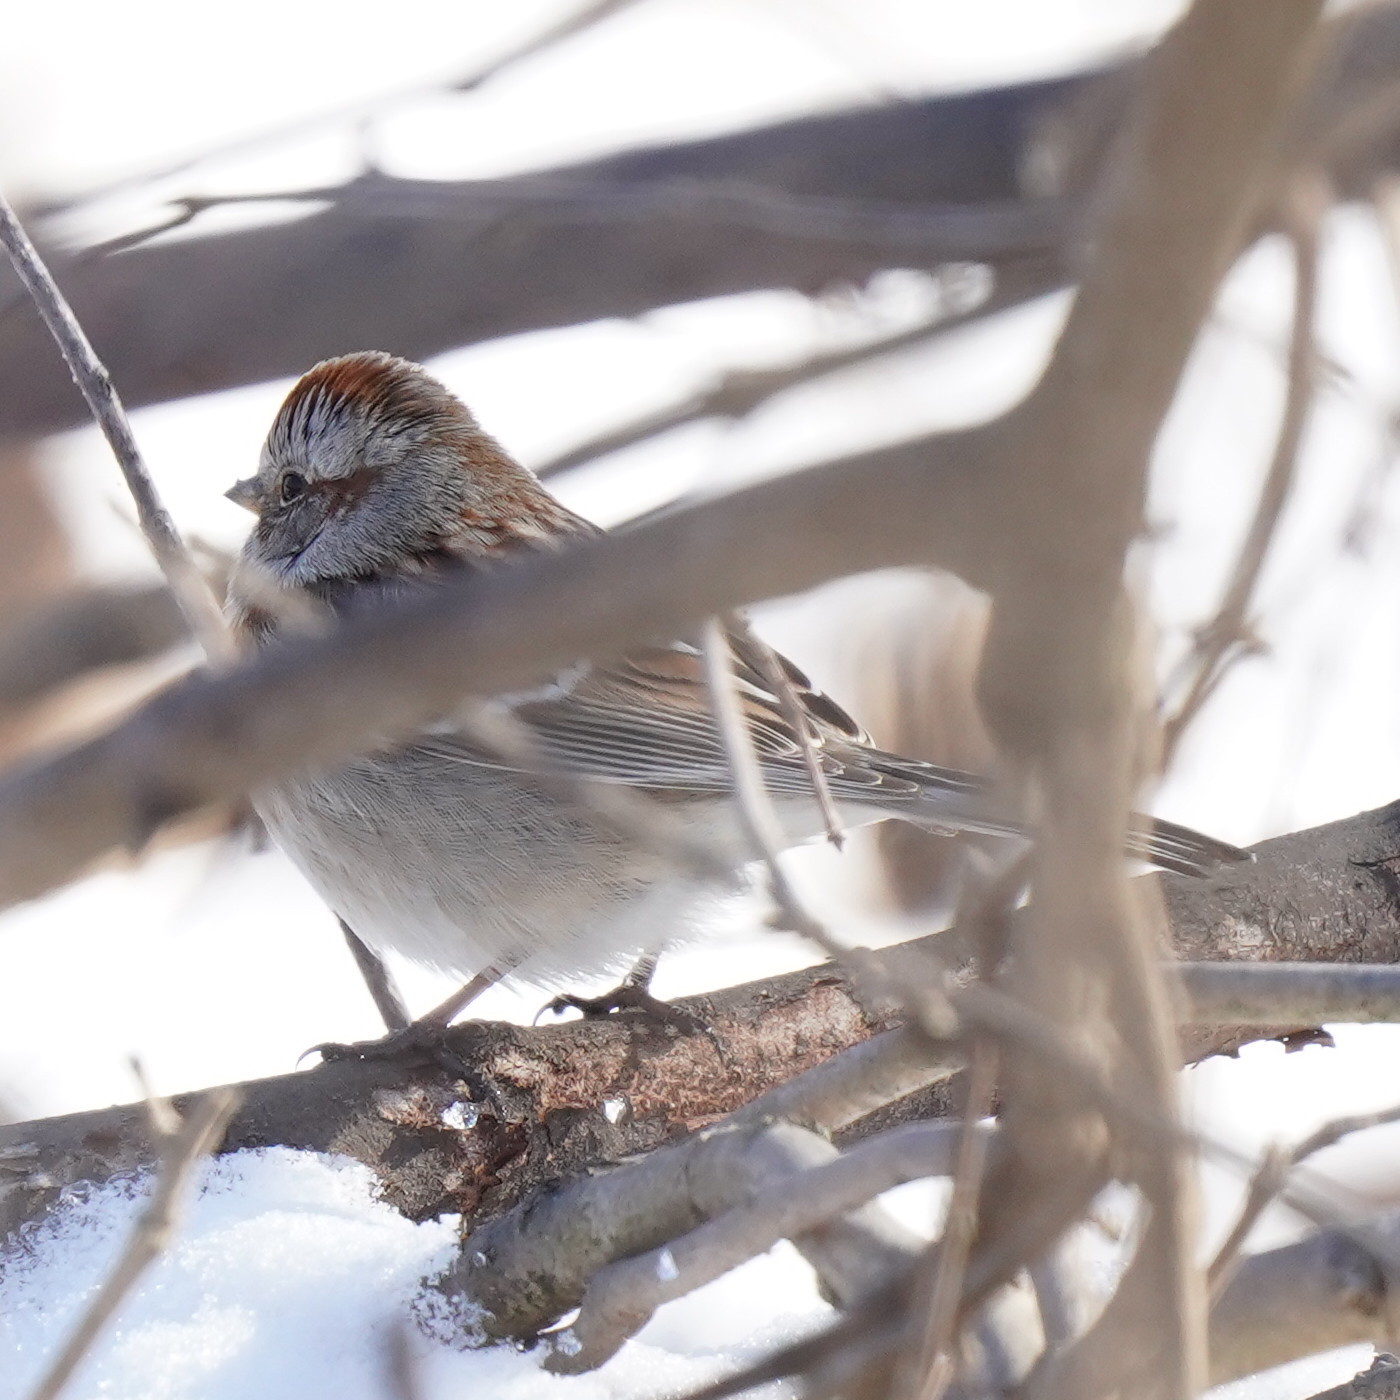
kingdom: Animalia
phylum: Chordata
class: Aves
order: Passeriformes
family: Passerellidae
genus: Spizelloides
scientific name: Spizelloides arborea
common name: American tree sparrow
